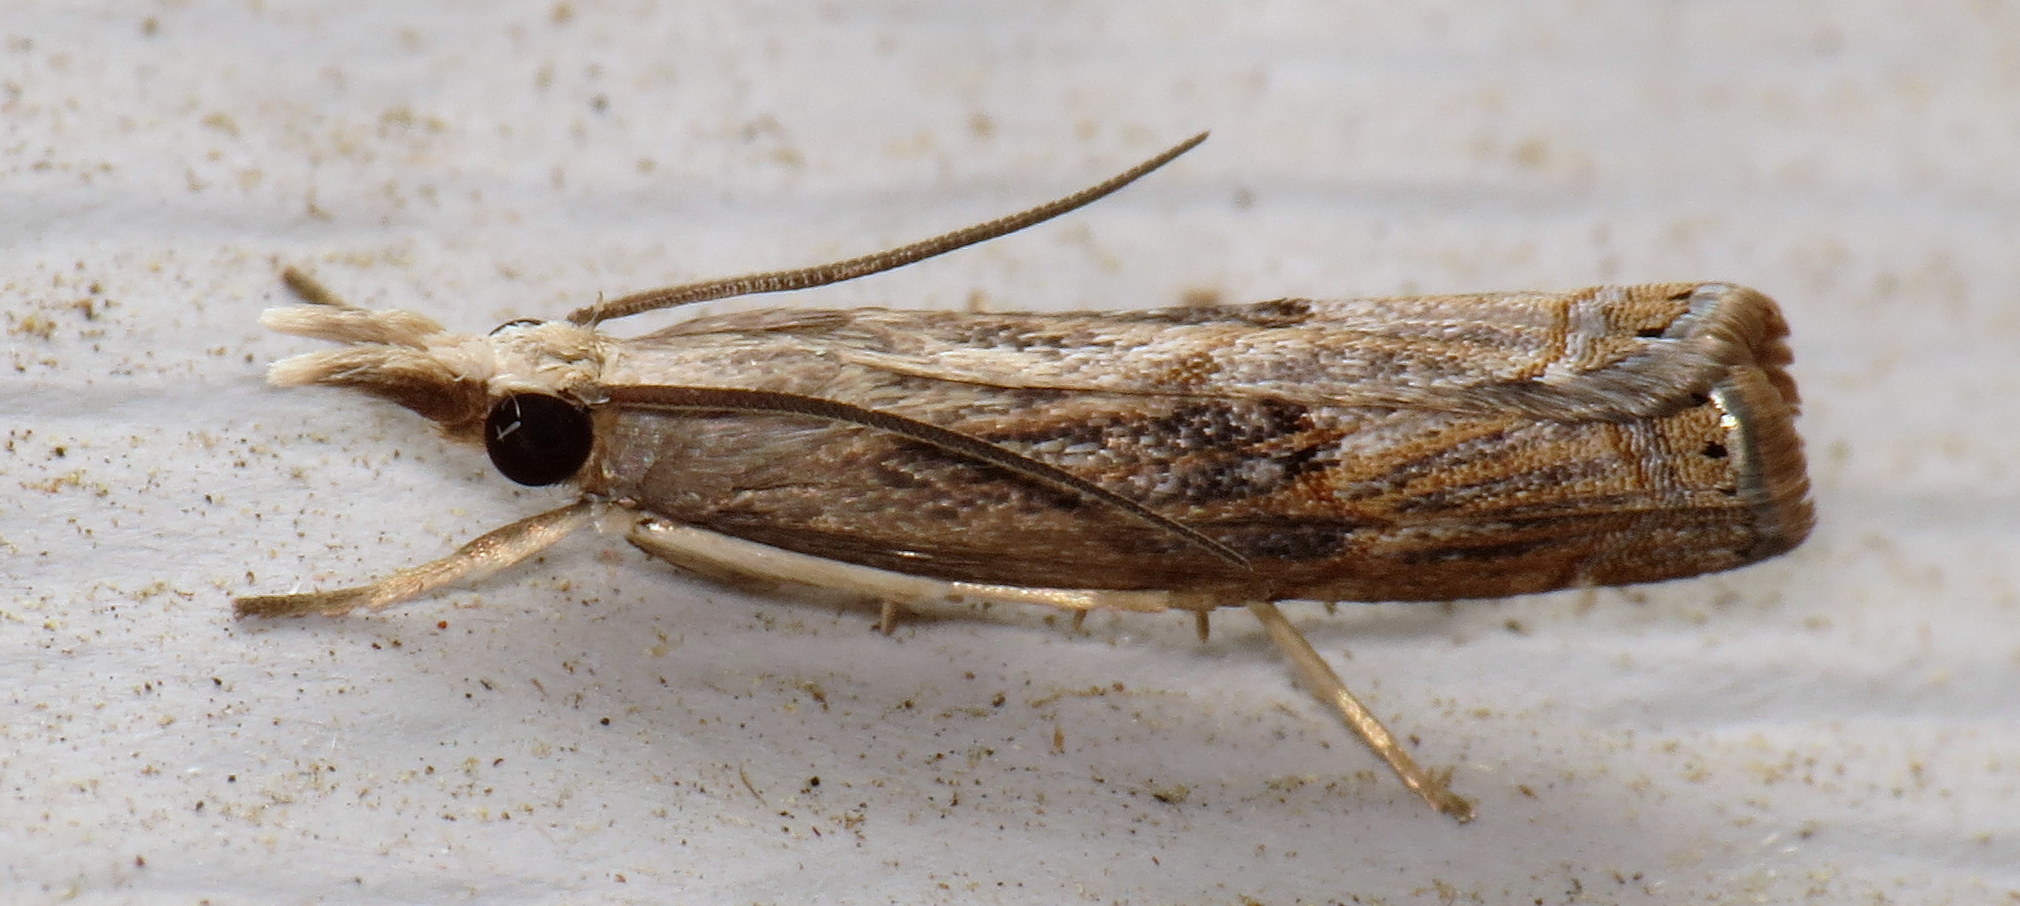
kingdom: Animalia
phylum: Arthropoda
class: Insecta
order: Lepidoptera
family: Crambidae
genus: Parapediasia
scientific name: Parapediasia teterellus
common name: Bluegrass webworm moth
